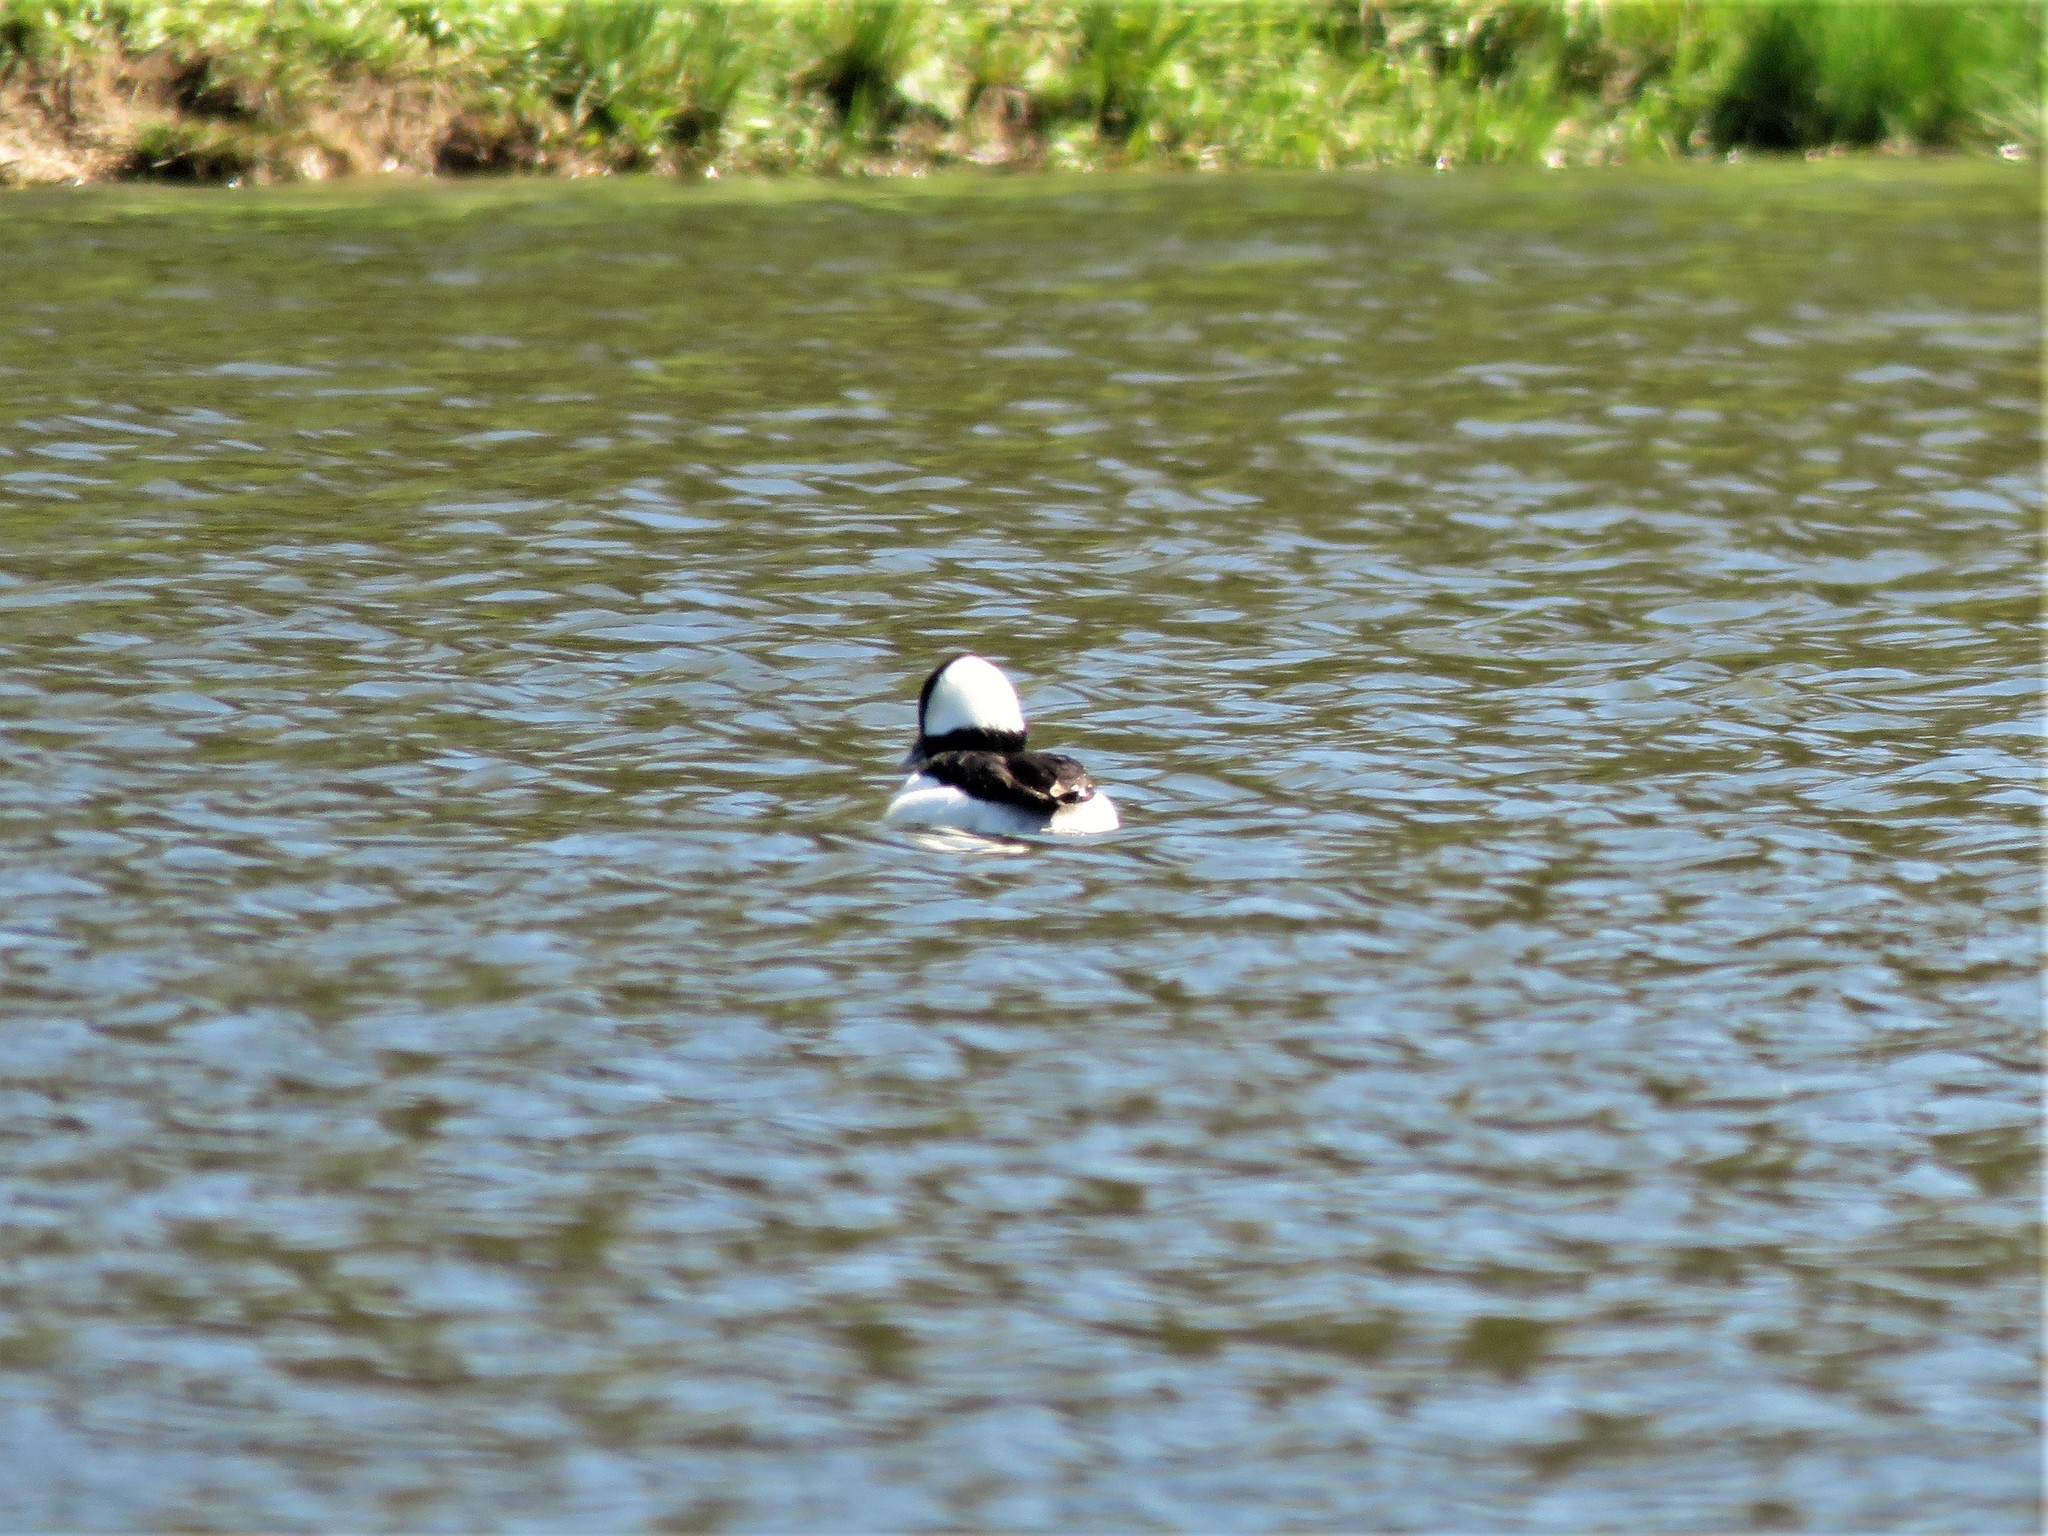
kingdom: Animalia
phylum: Chordata
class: Aves
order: Anseriformes
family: Anatidae
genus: Bucephala
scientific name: Bucephala albeola
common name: Bufflehead
